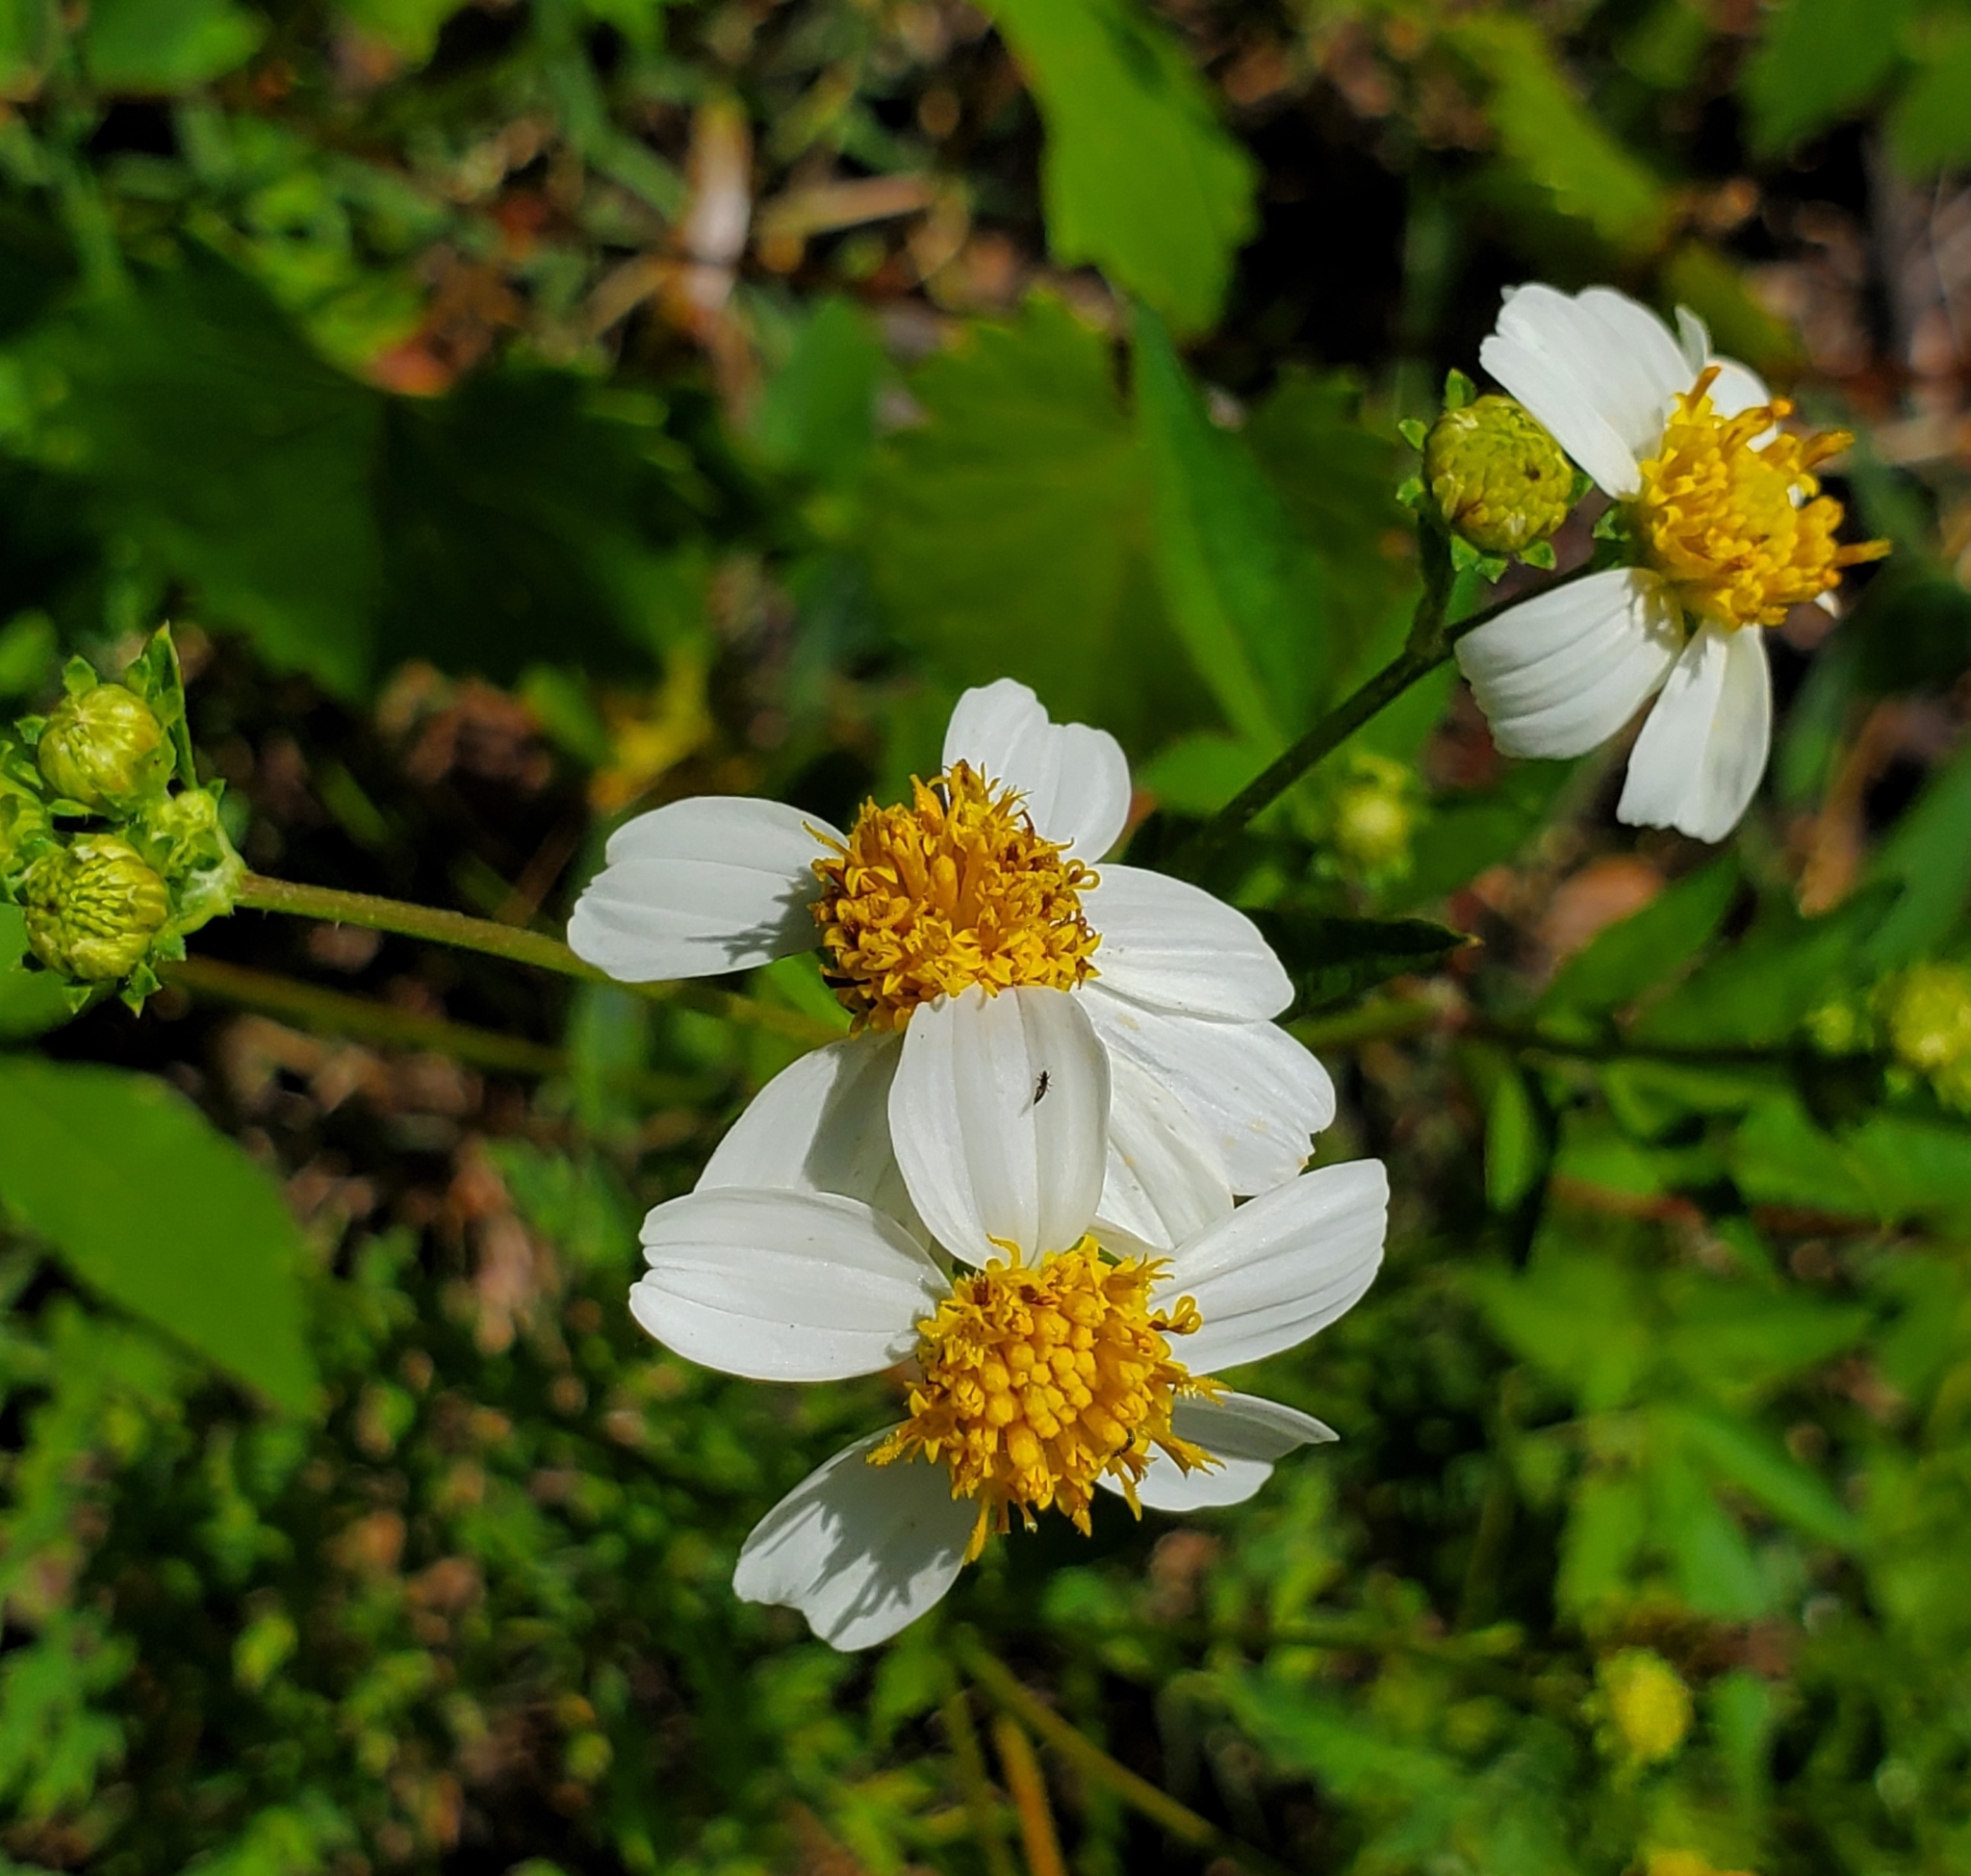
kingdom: Plantae
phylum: Tracheophyta
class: Magnoliopsida
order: Asterales
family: Asteraceae
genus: Bidens
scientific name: Bidens alba
